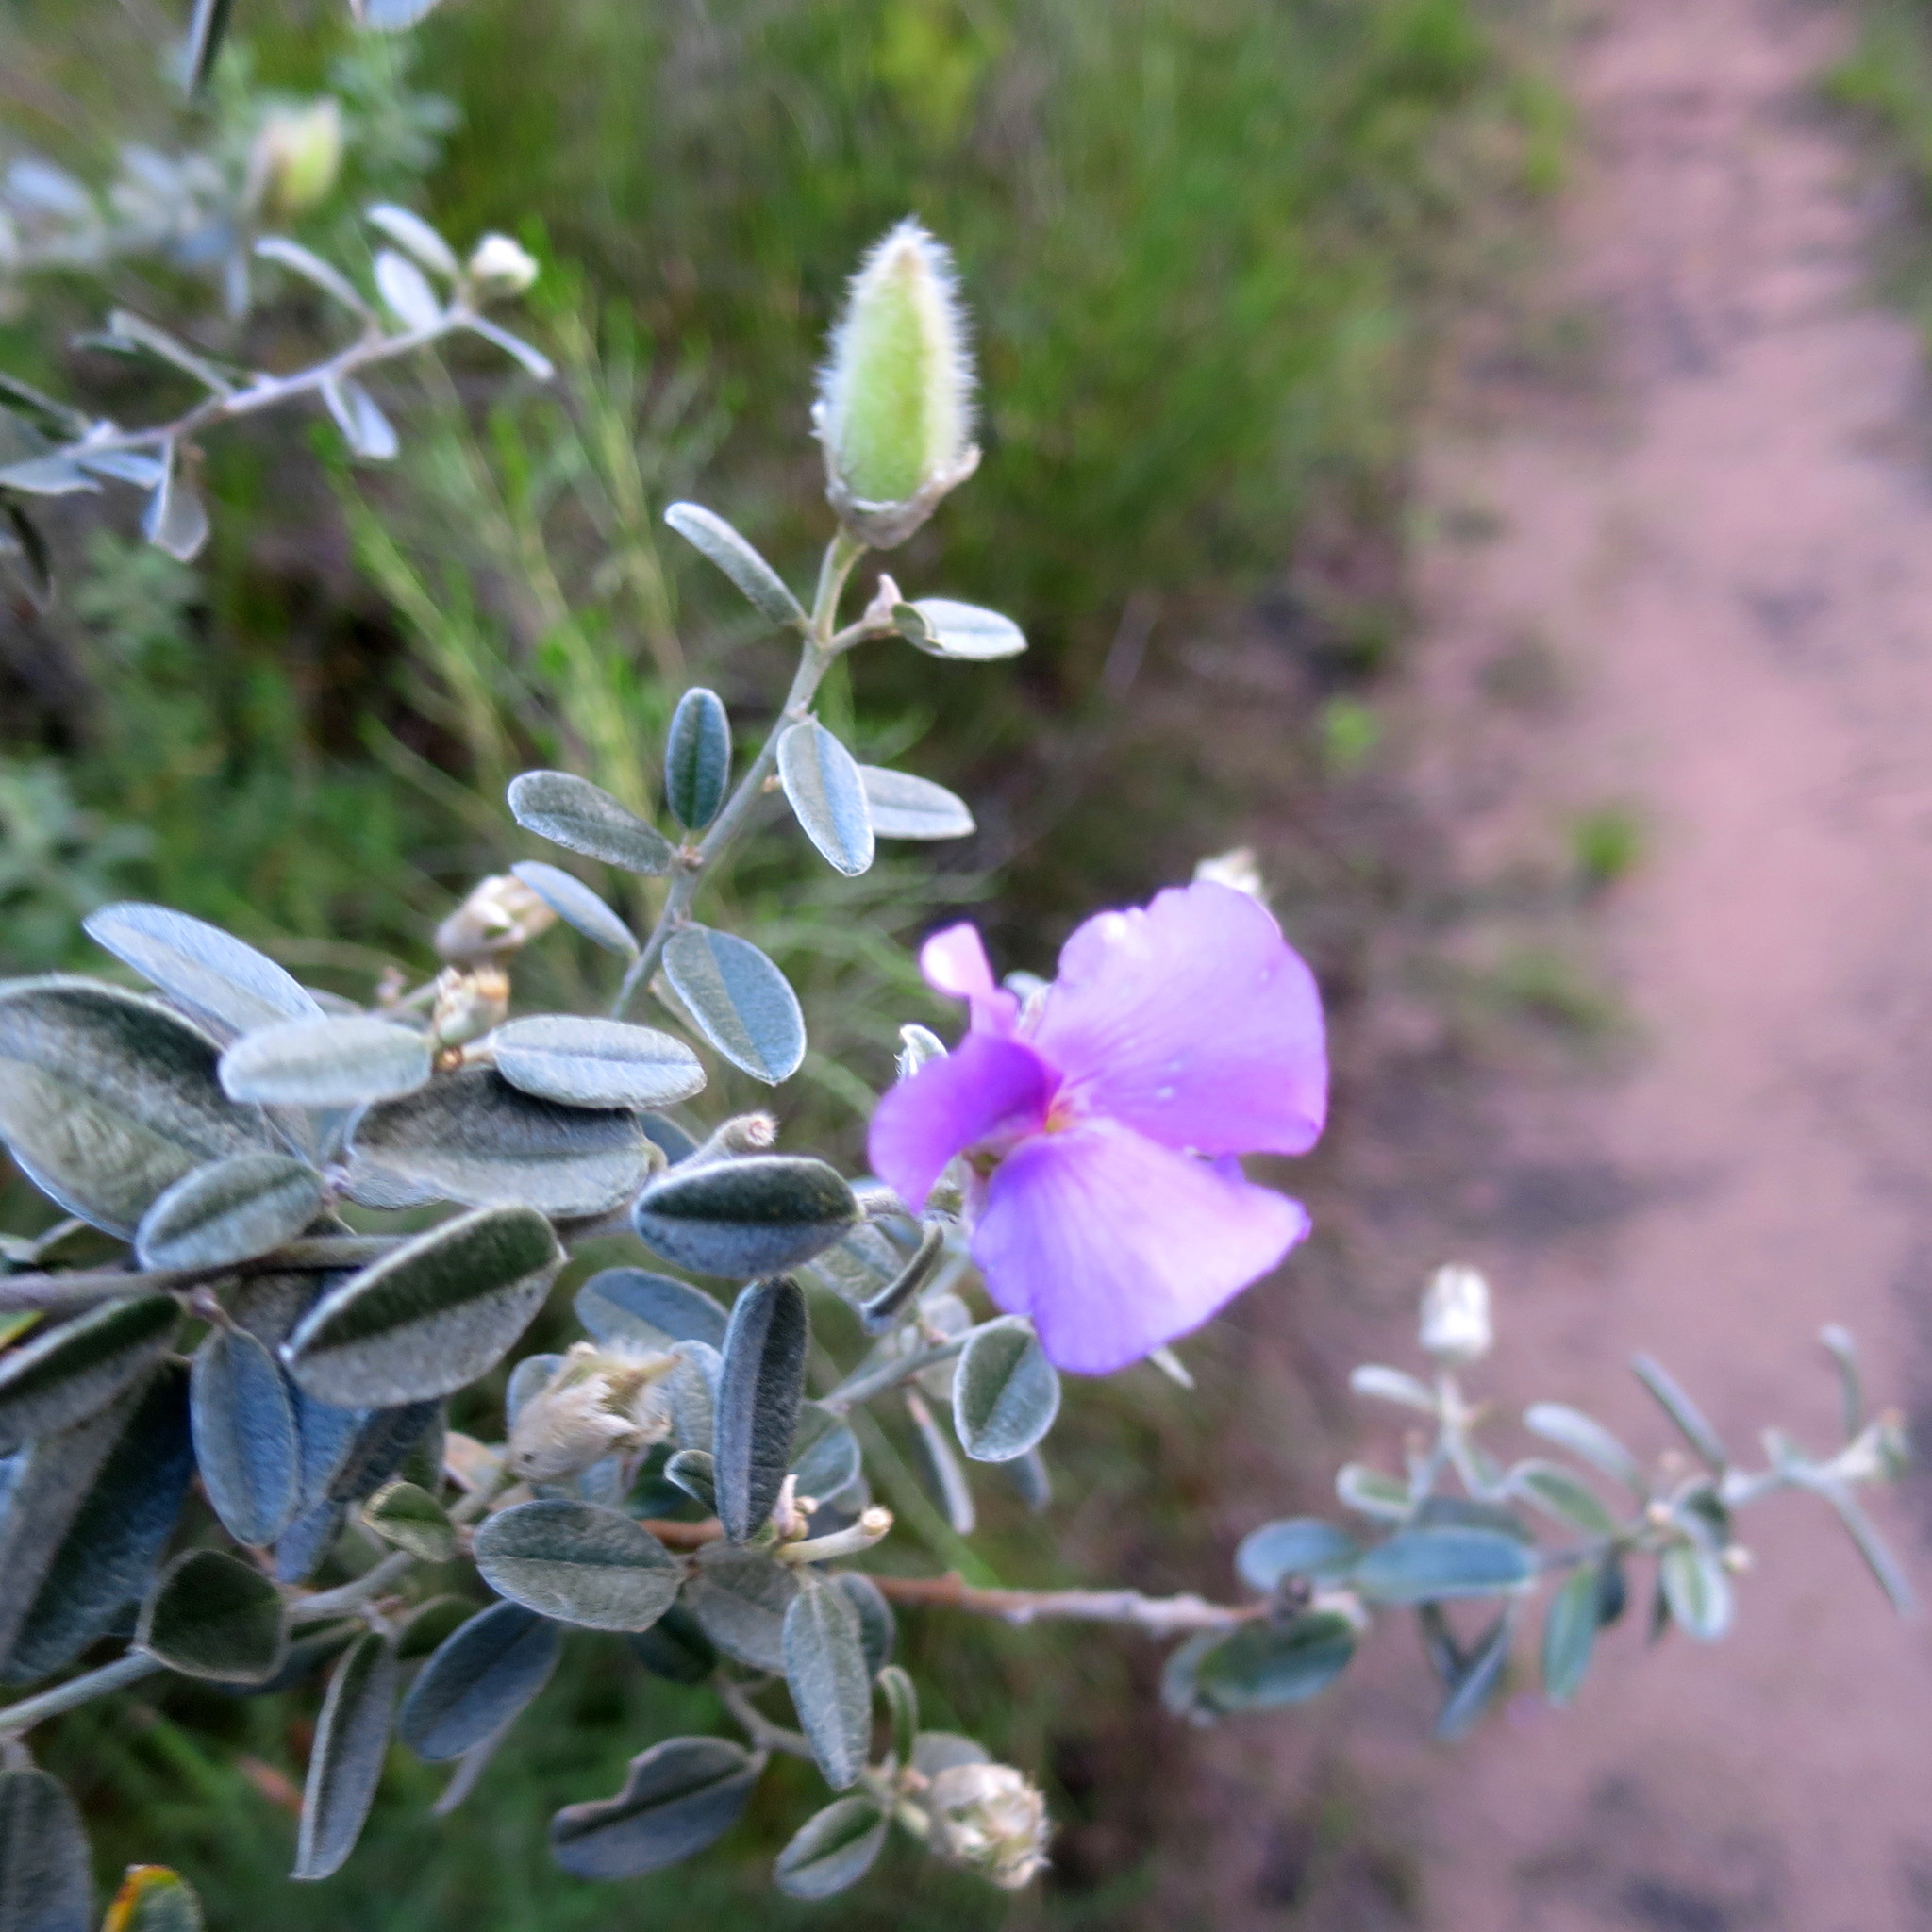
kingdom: Plantae
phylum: Tracheophyta
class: Magnoliopsida
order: Fabales
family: Fabaceae
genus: Podalyria
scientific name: Podalyria burchellii
